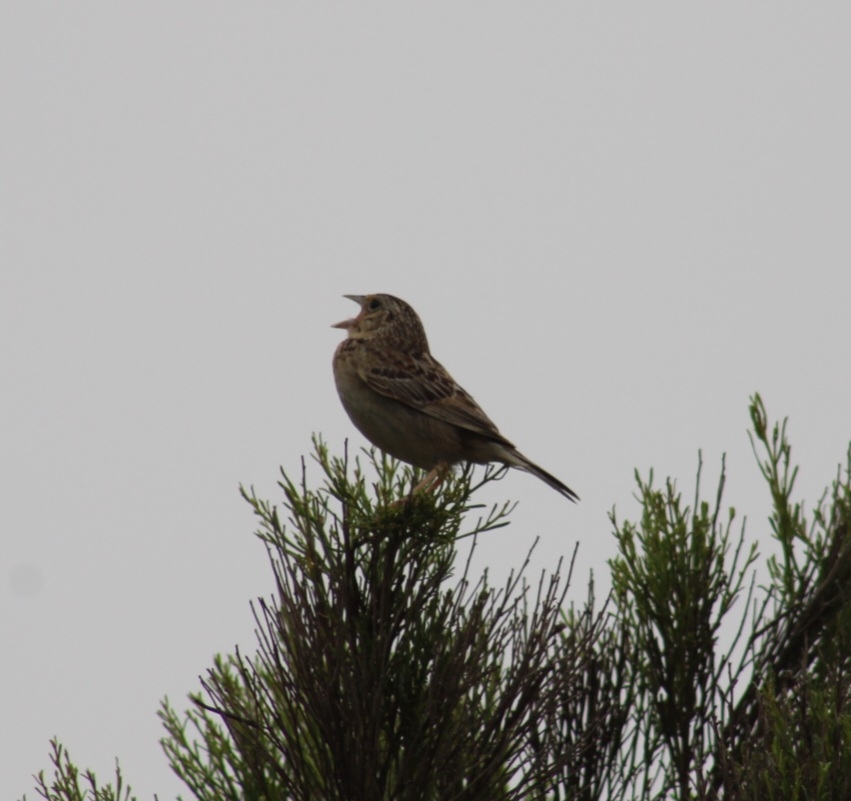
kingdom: Animalia
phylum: Chordata
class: Aves
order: Passeriformes
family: Passerellidae
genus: Ammodramus
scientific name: Ammodramus savannarum
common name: Grasshopper sparrow
